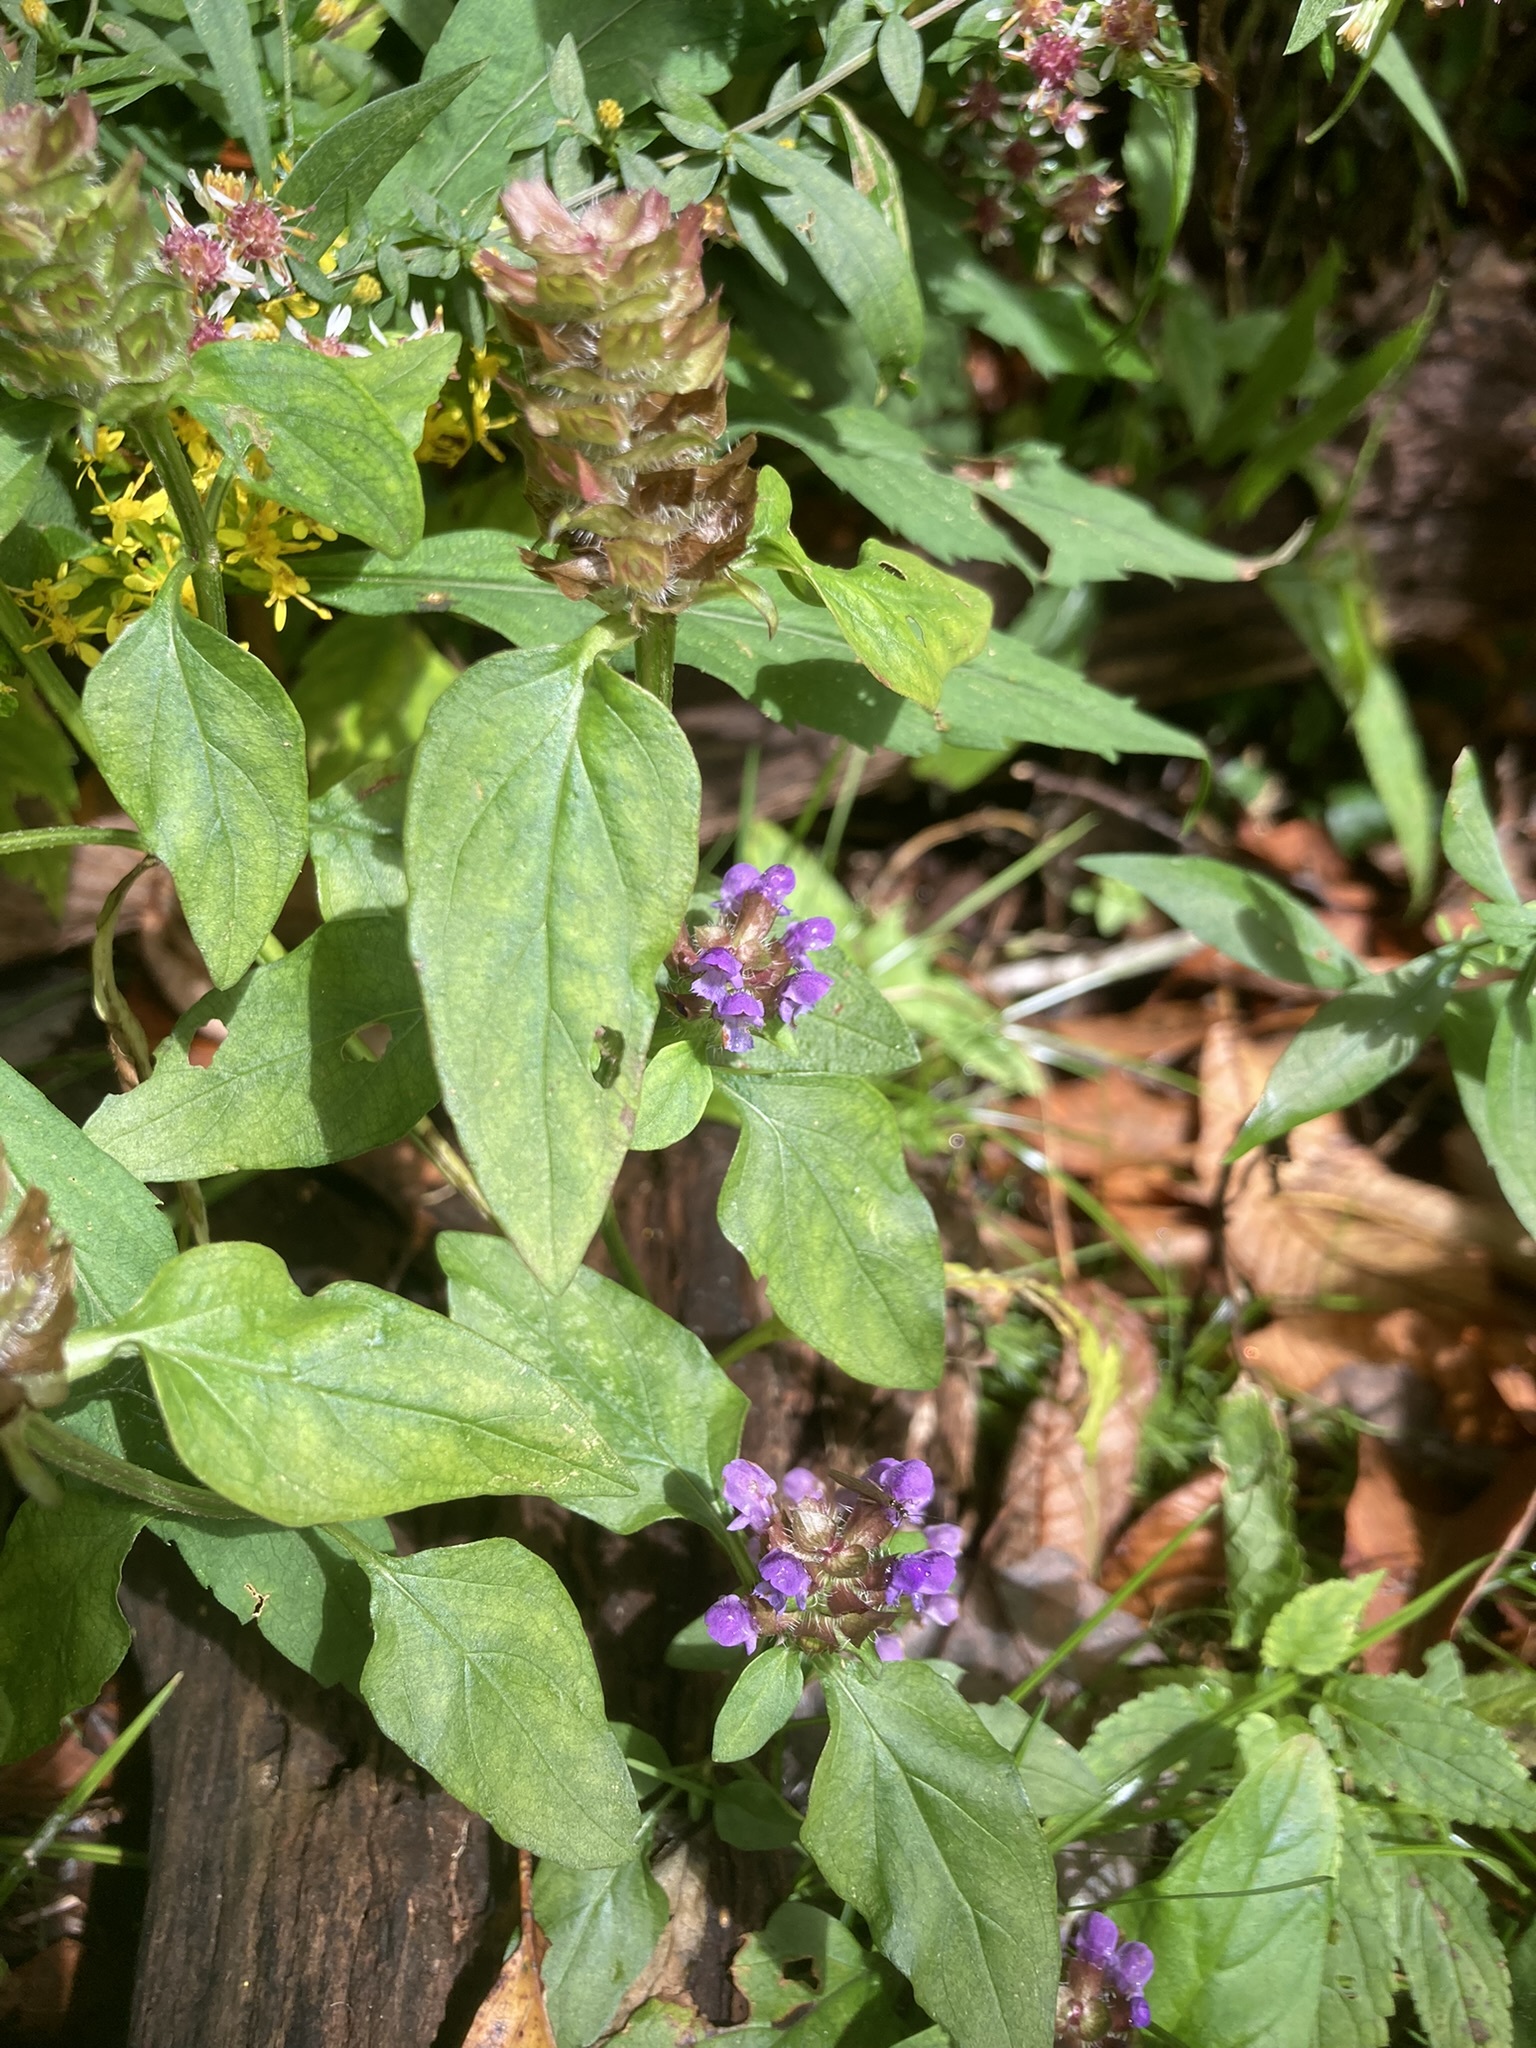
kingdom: Plantae
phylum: Tracheophyta
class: Magnoliopsida
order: Lamiales
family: Lamiaceae
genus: Prunella
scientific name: Prunella vulgaris
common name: Heal-all
